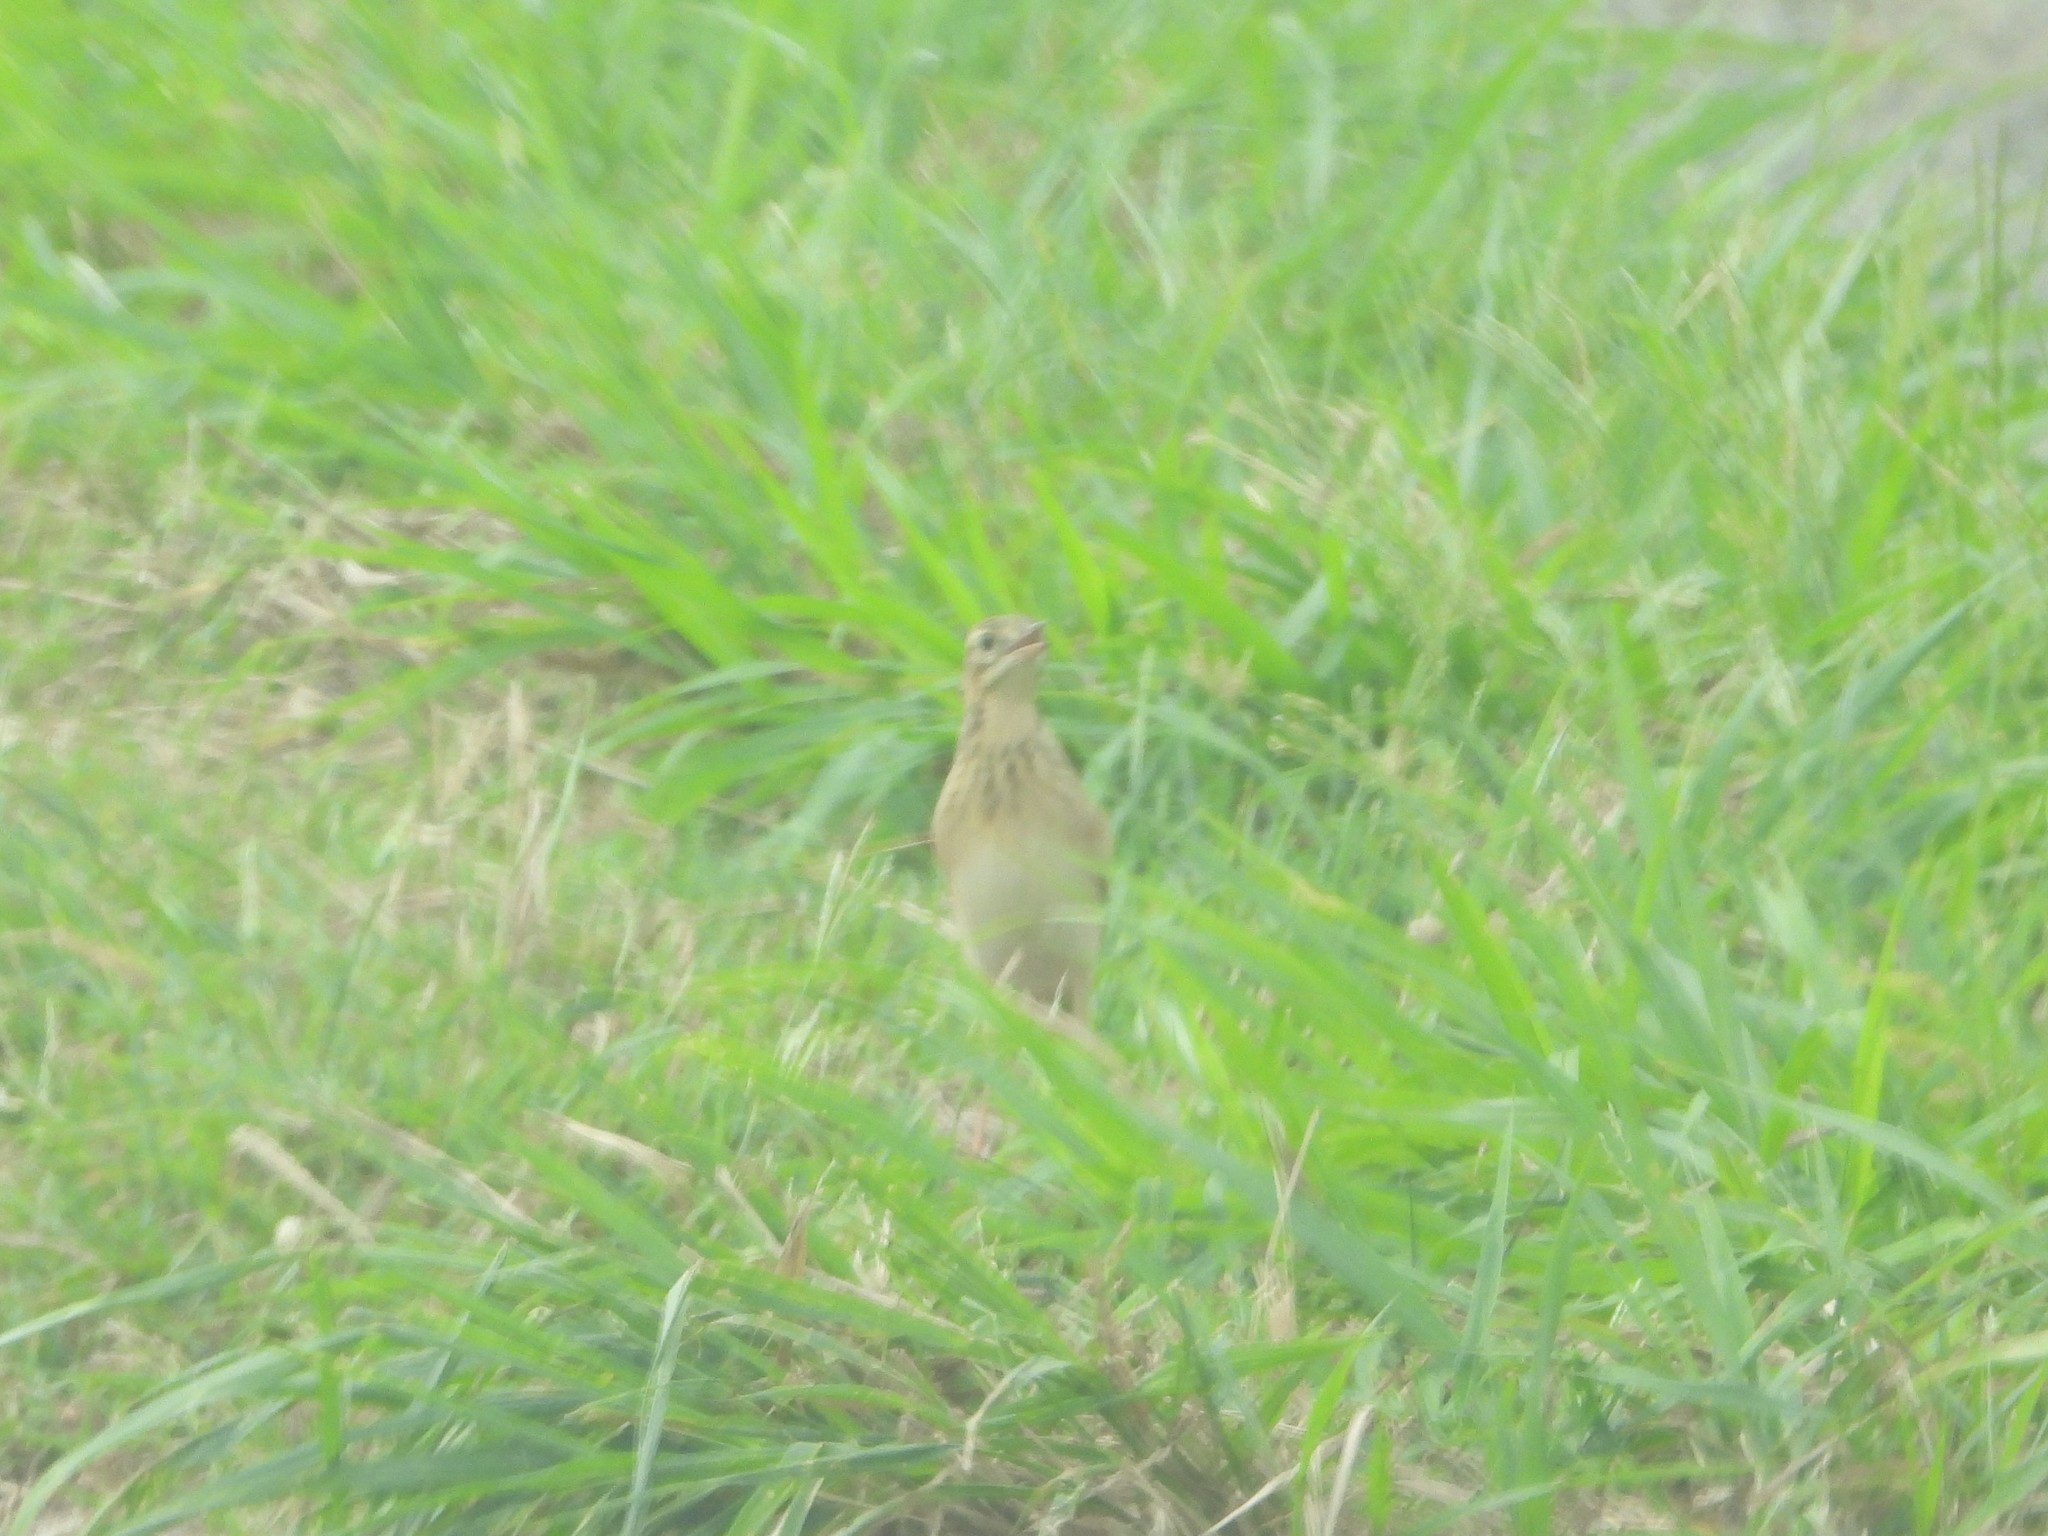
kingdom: Animalia
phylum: Chordata
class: Aves
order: Passeriformes
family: Motacillidae
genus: Anthus
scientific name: Anthus richardi
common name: Richard's pipit
